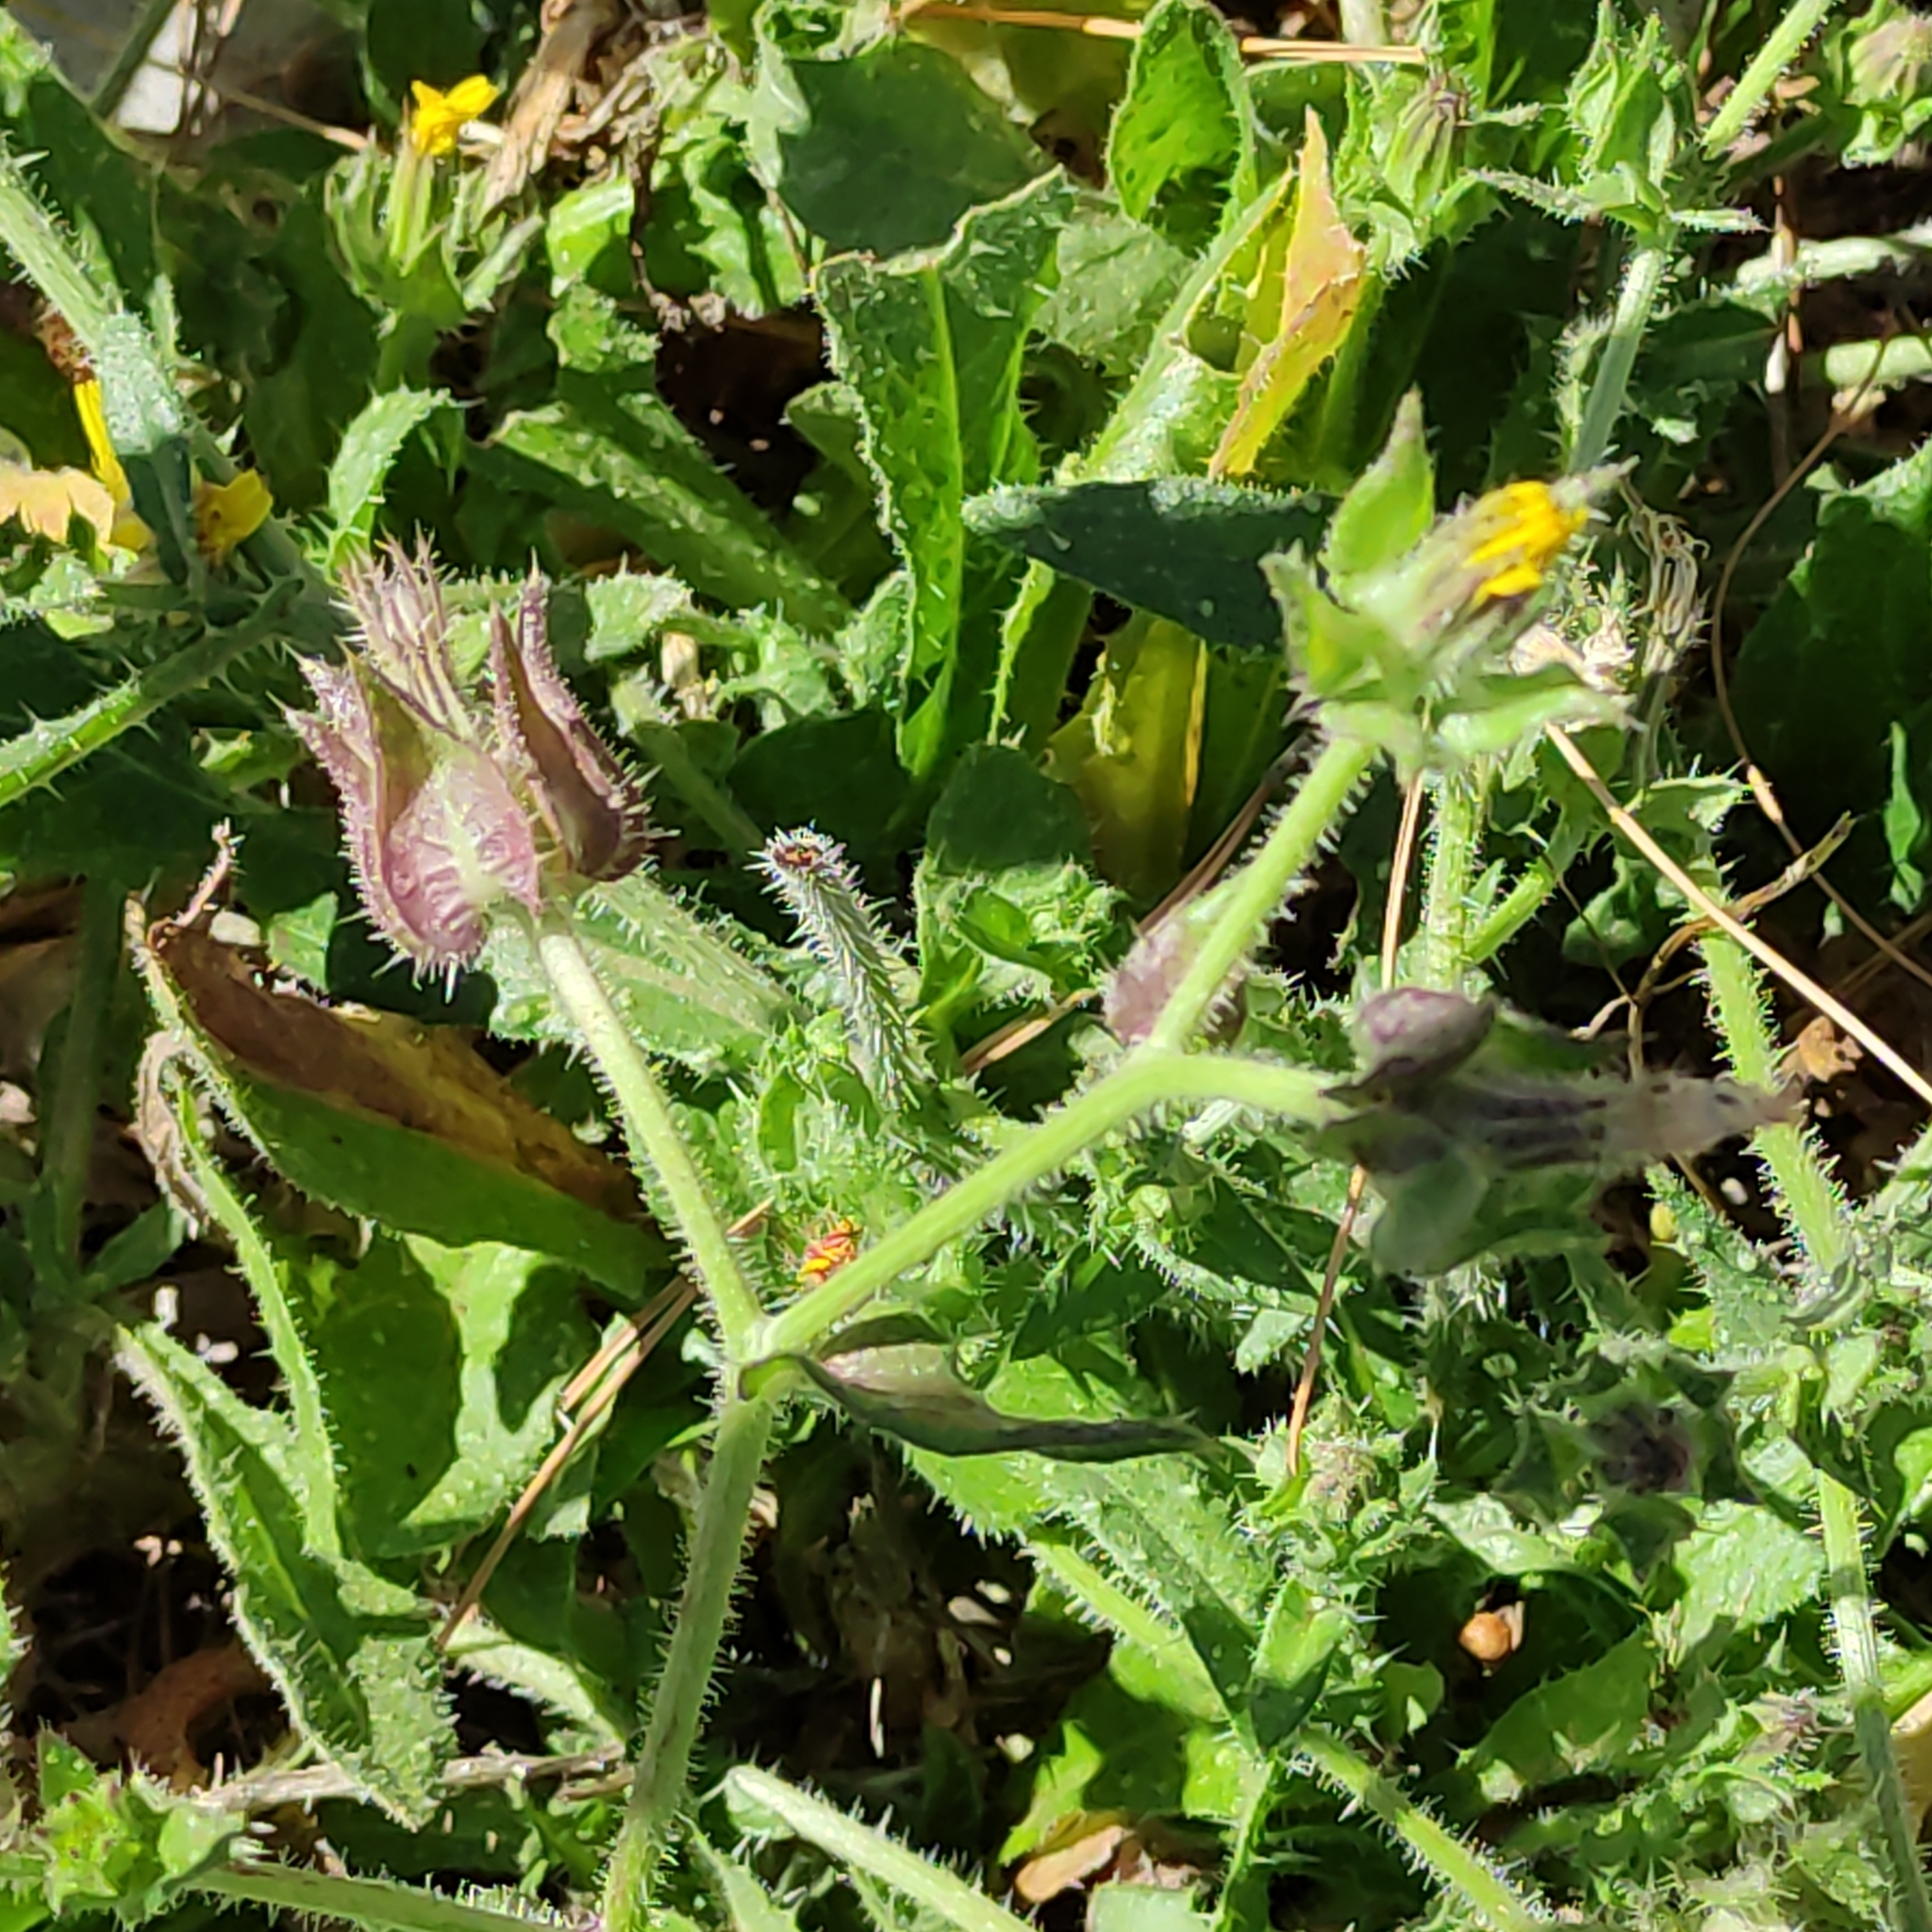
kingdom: Plantae
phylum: Tracheophyta
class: Magnoliopsida
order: Asterales
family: Asteraceae
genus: Helminthotheca
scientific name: Helminthotheca echioides
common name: Ox-tongue
